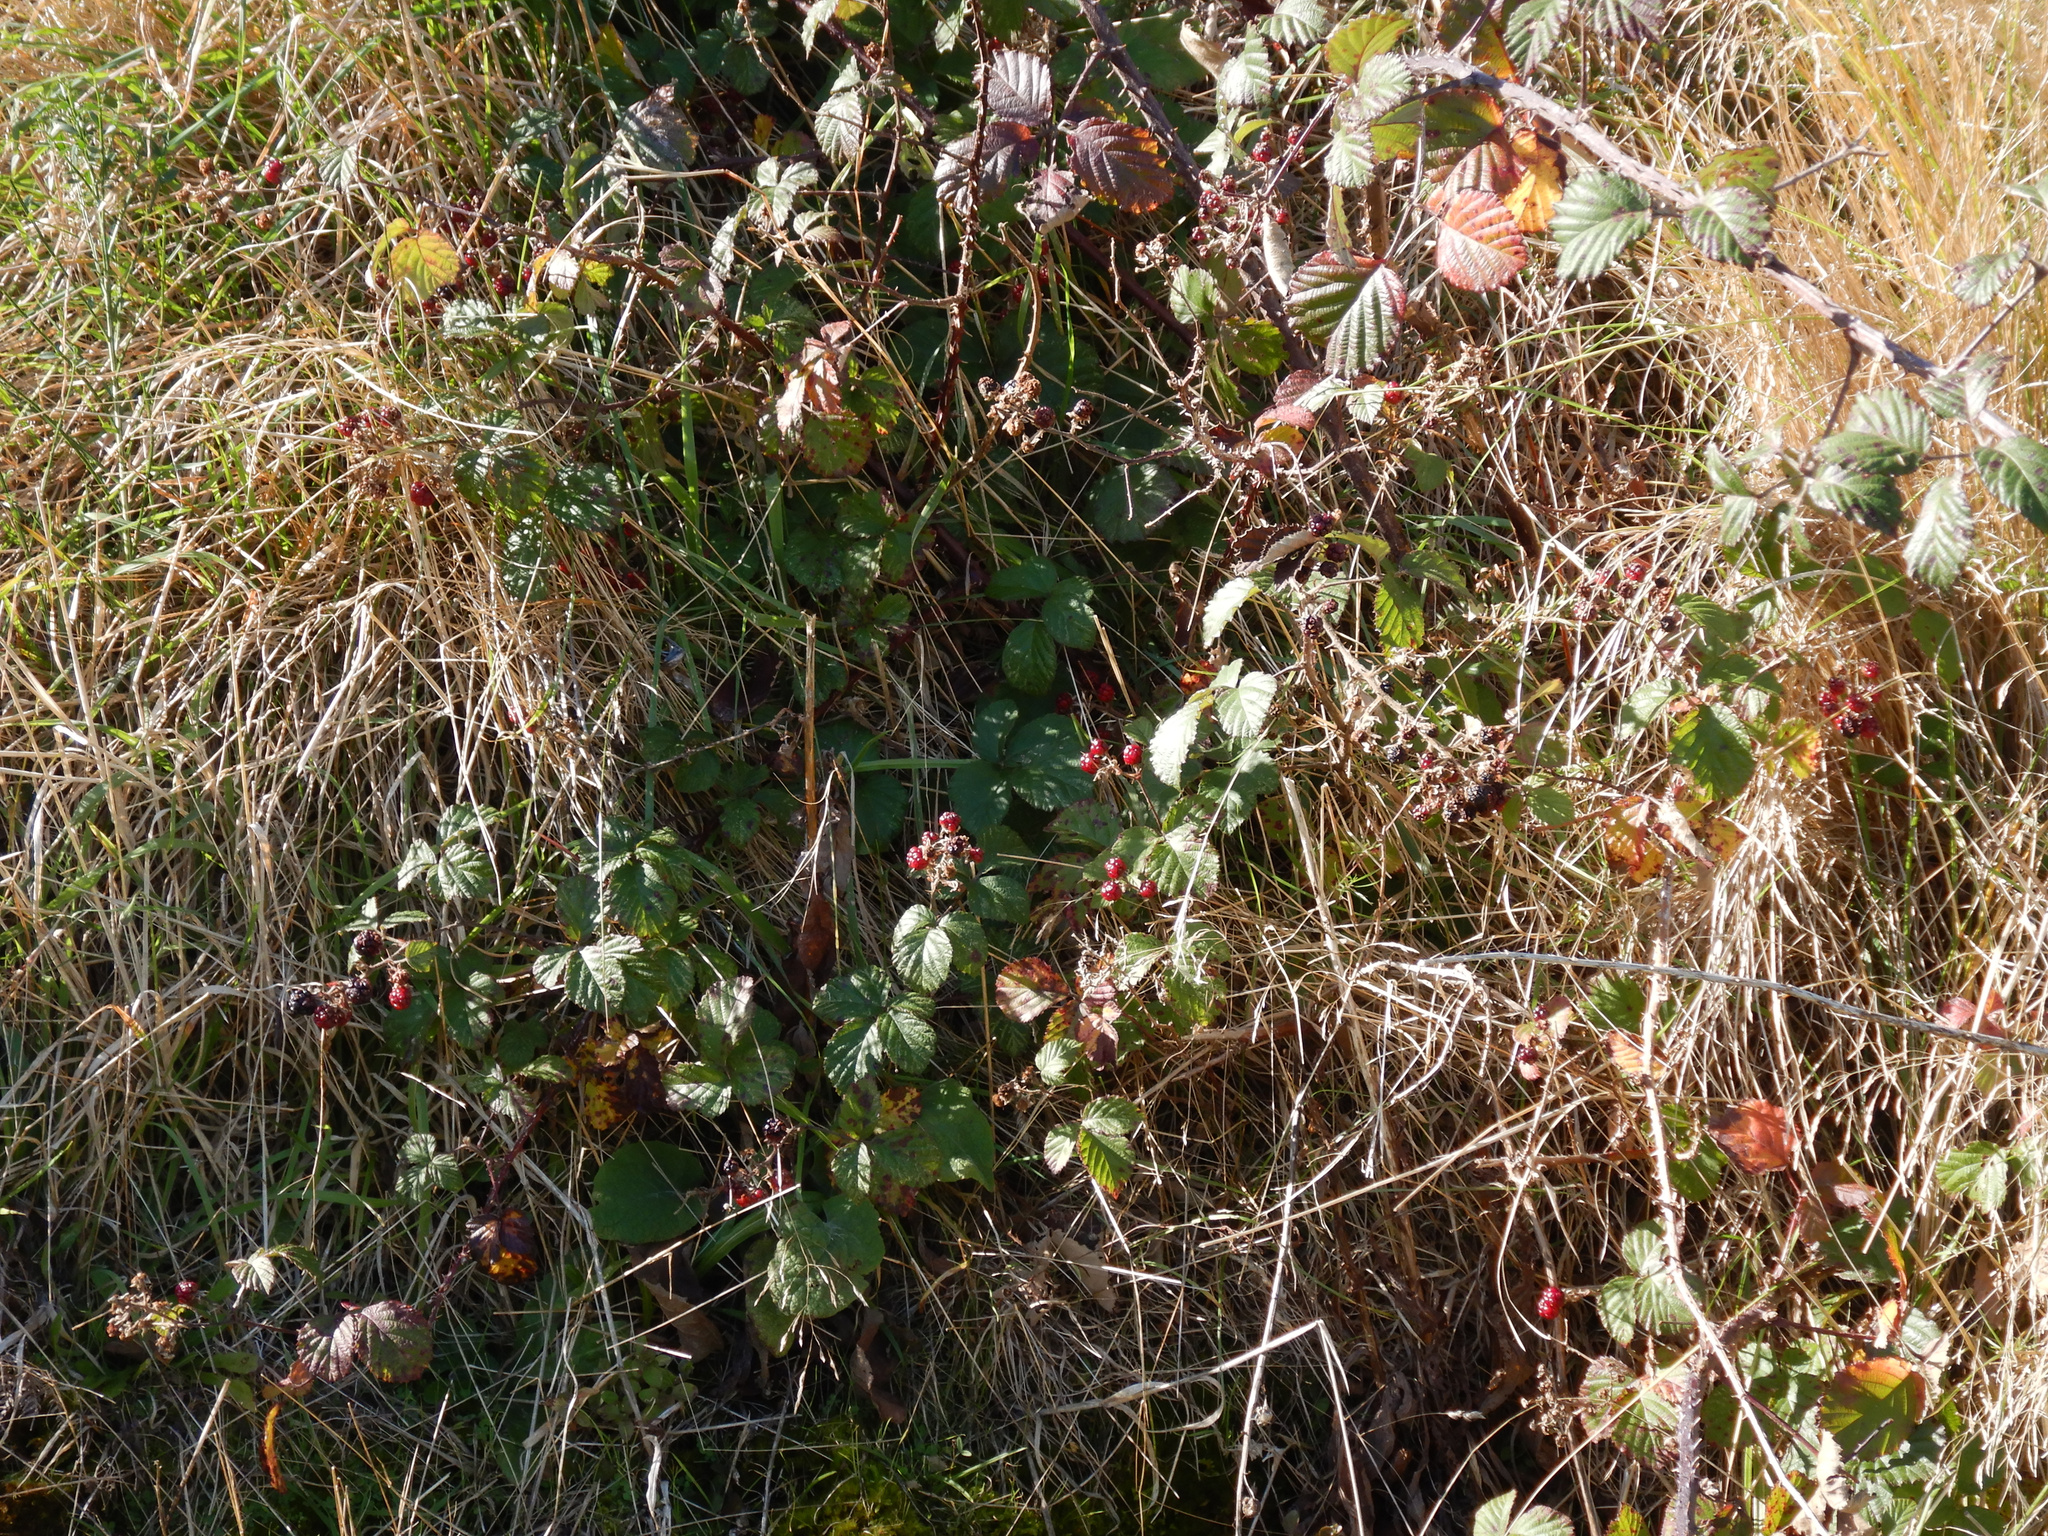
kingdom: Plantae
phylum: Tracheophyta
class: Magnoliopsida
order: Rosales
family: Rosaceae
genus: Rubus
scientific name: Rubus fruticosus
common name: Blackberry, bramble
